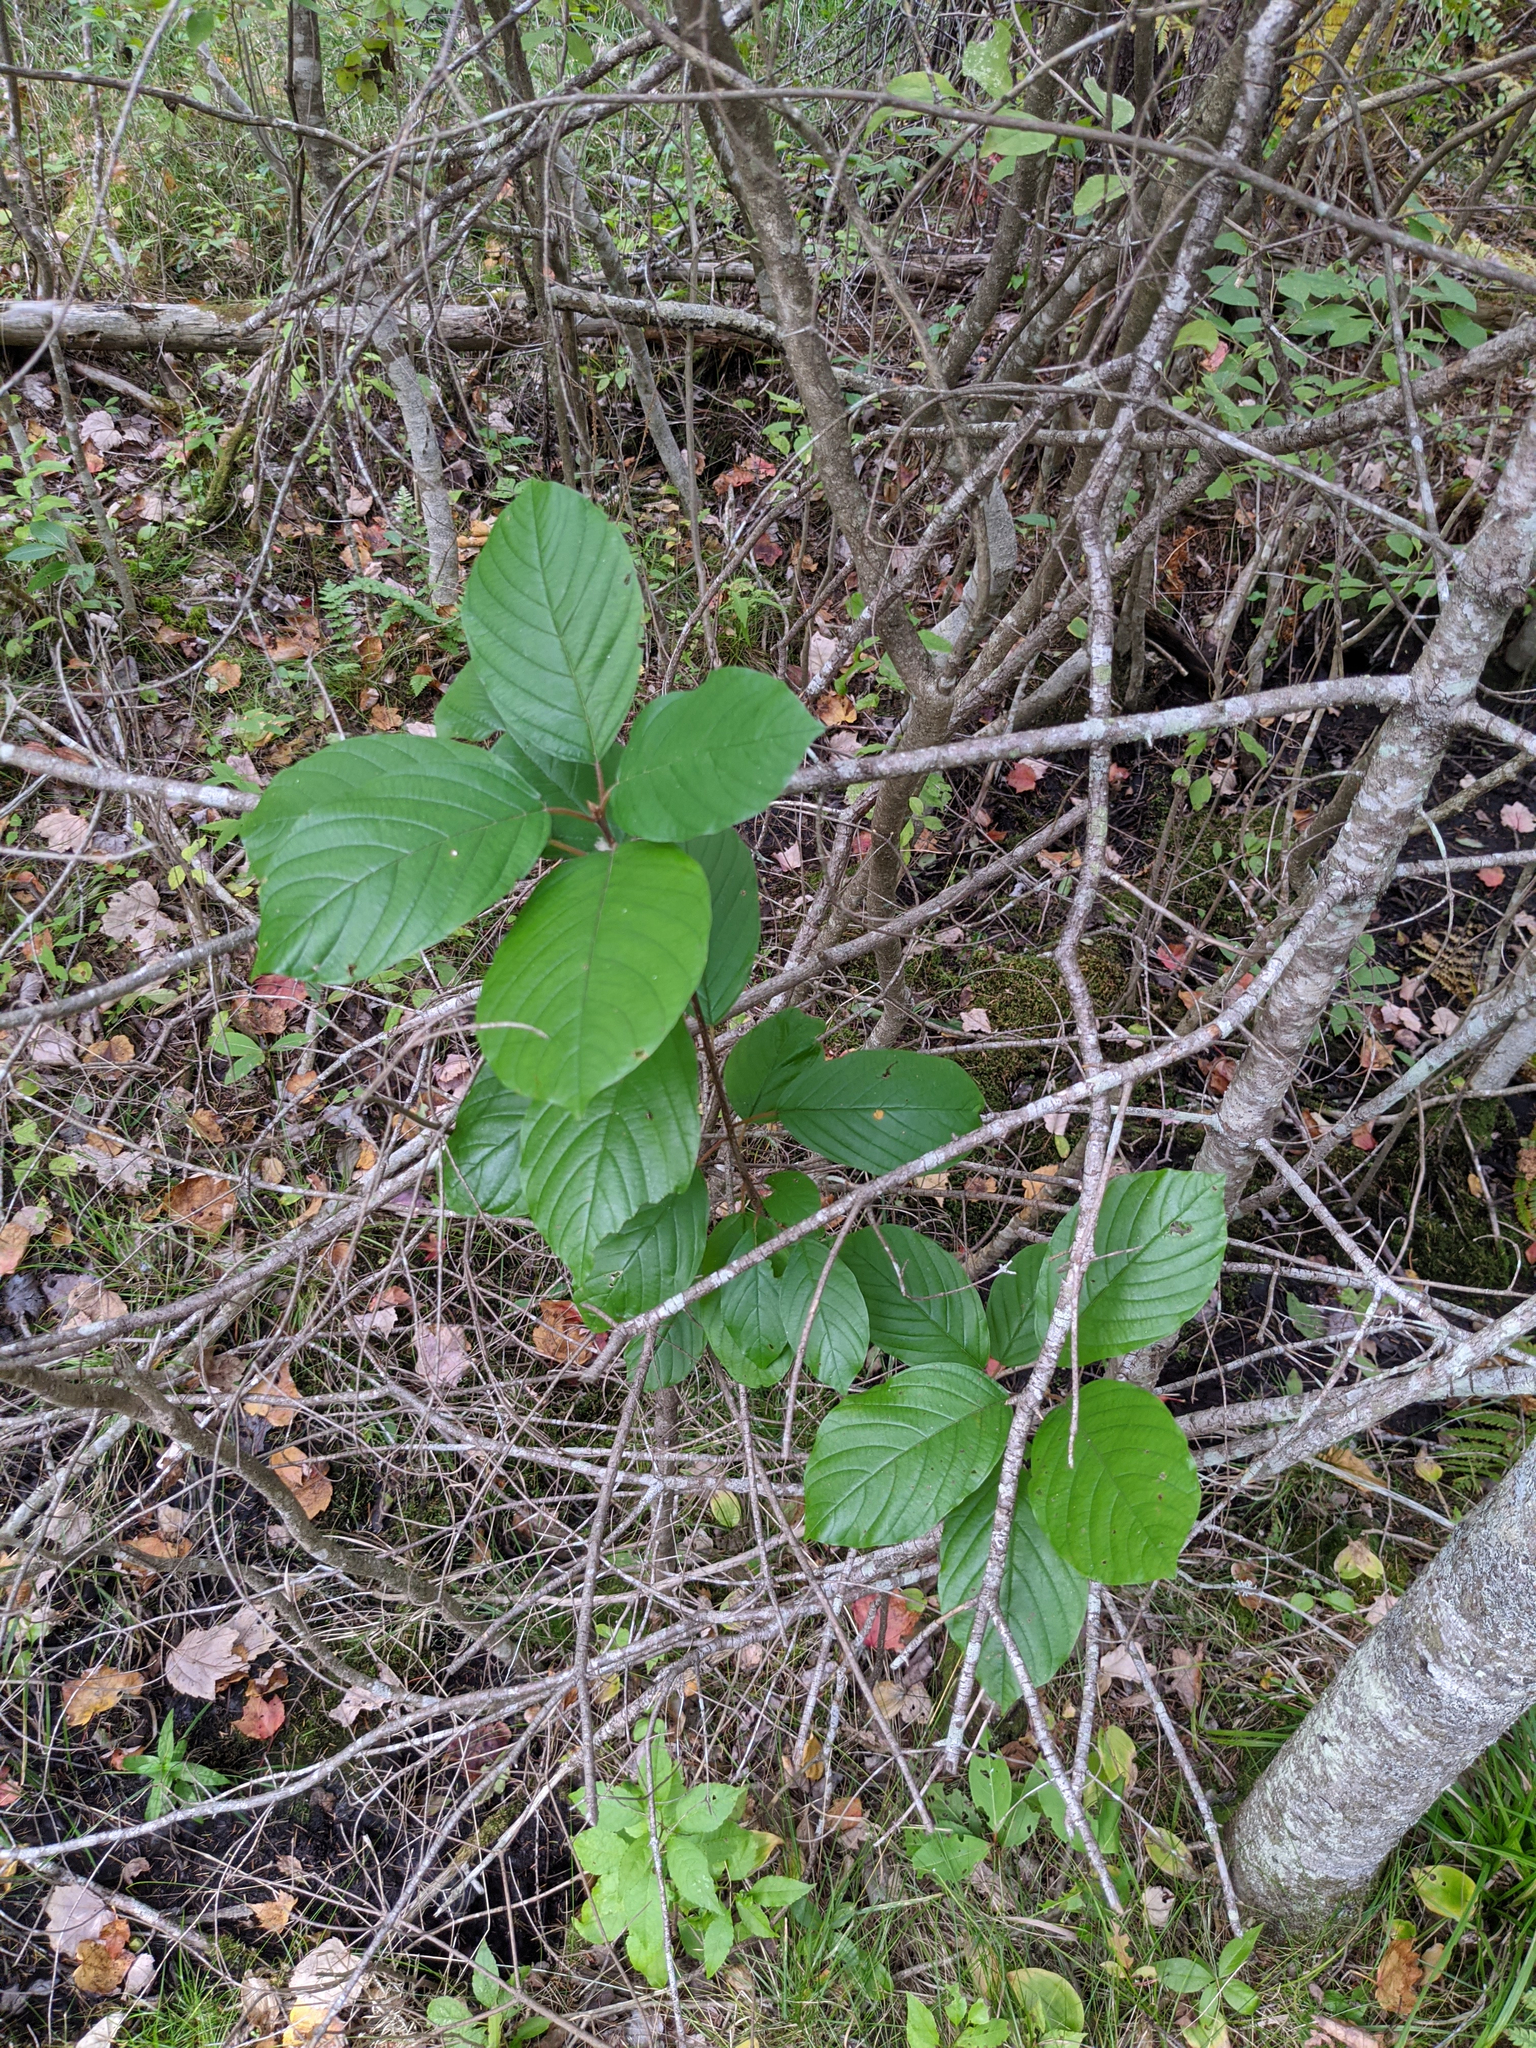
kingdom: Plantae
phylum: Tracheophyta
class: Magnoliopsida
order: Rosales
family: Rhamnaceae
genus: Frangula
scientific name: Frangula alnus
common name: Alder buckthorn
